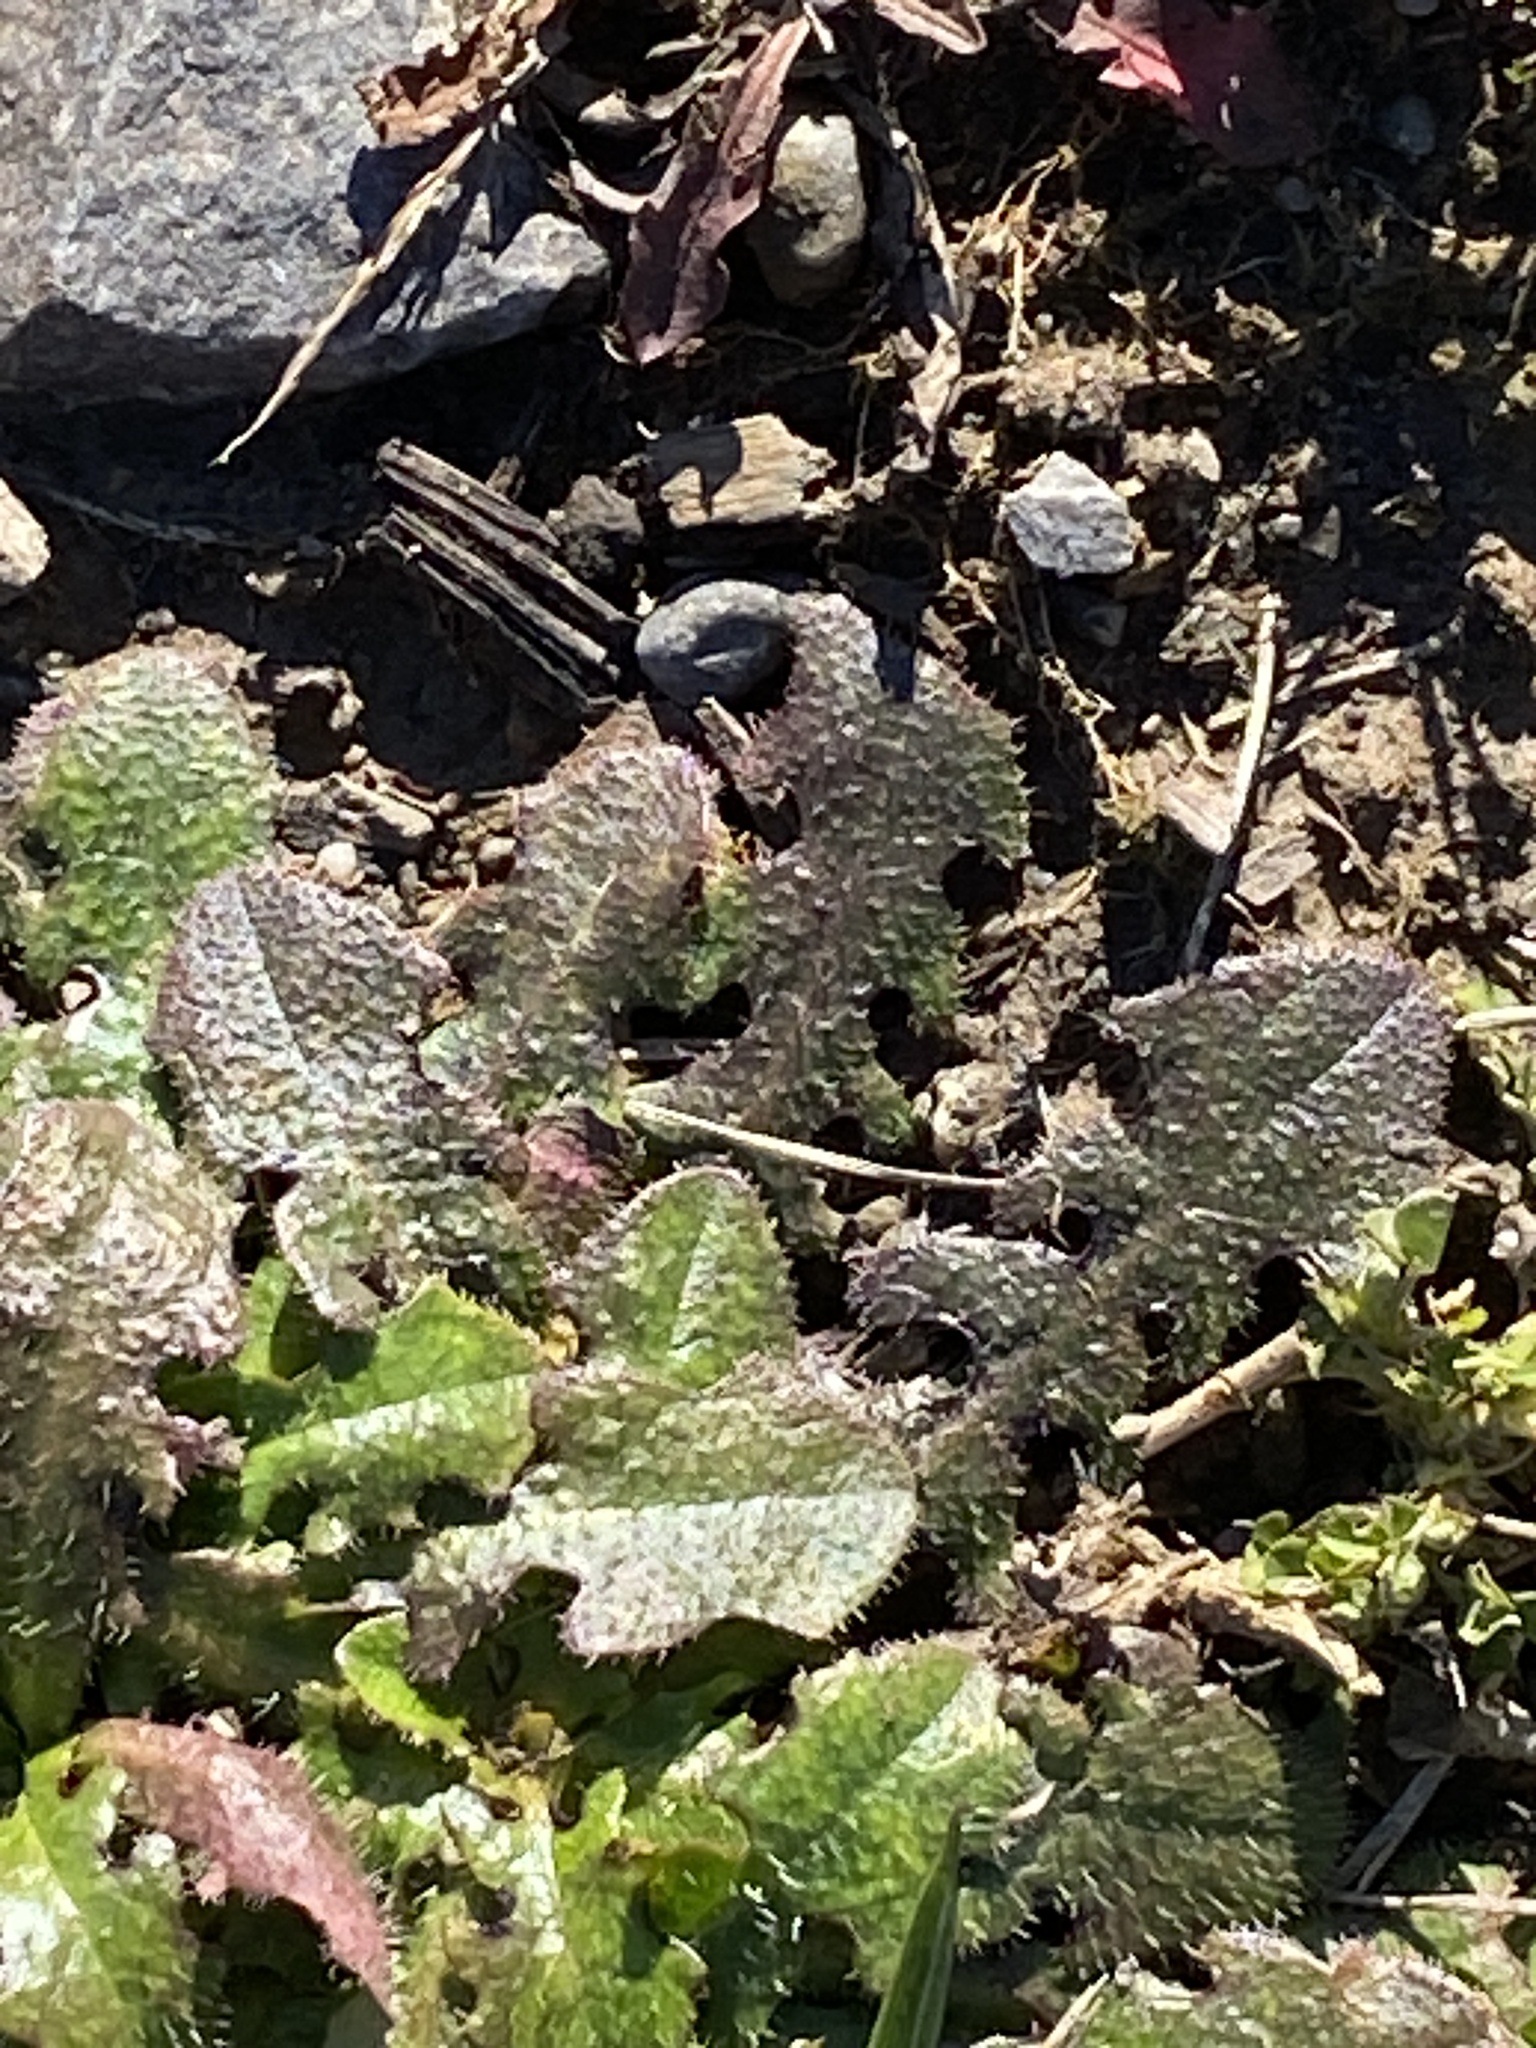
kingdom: Plantae
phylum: Tracheophyta
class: Magnoliopsida
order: Asterales
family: Asteraceae
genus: Hypochaeris
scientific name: Hypochaeris radicata
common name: Flatweed
